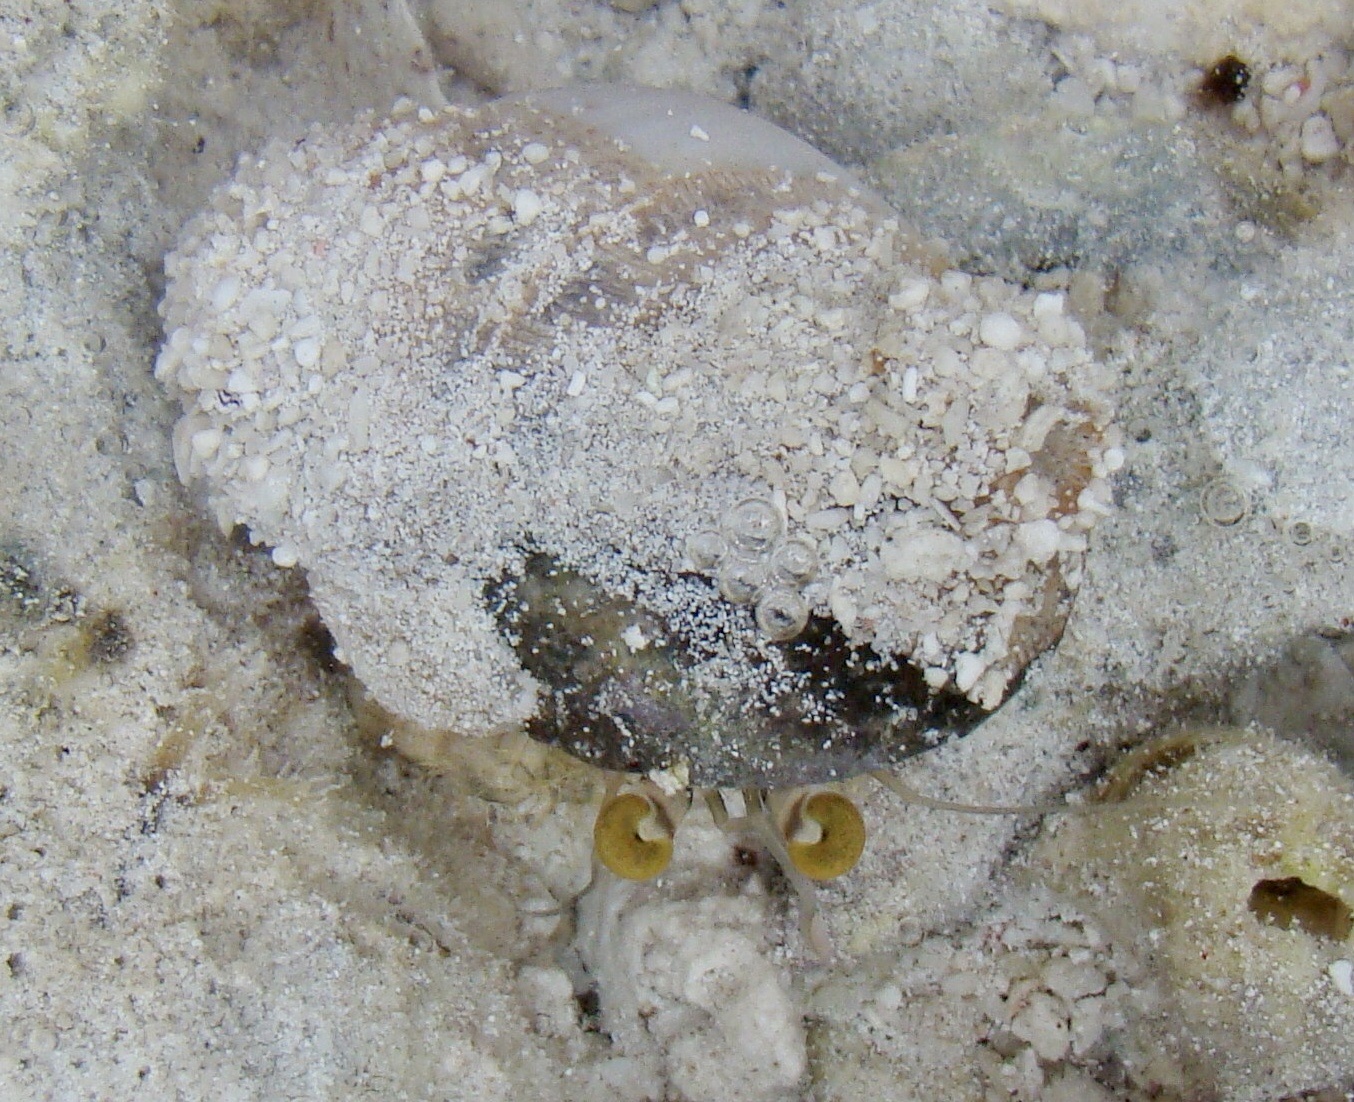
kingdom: Animalia
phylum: Arthropoda
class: Malacostraca
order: Decapoda
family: Diogenidae
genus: Dardanus
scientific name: Dardanus deformis
